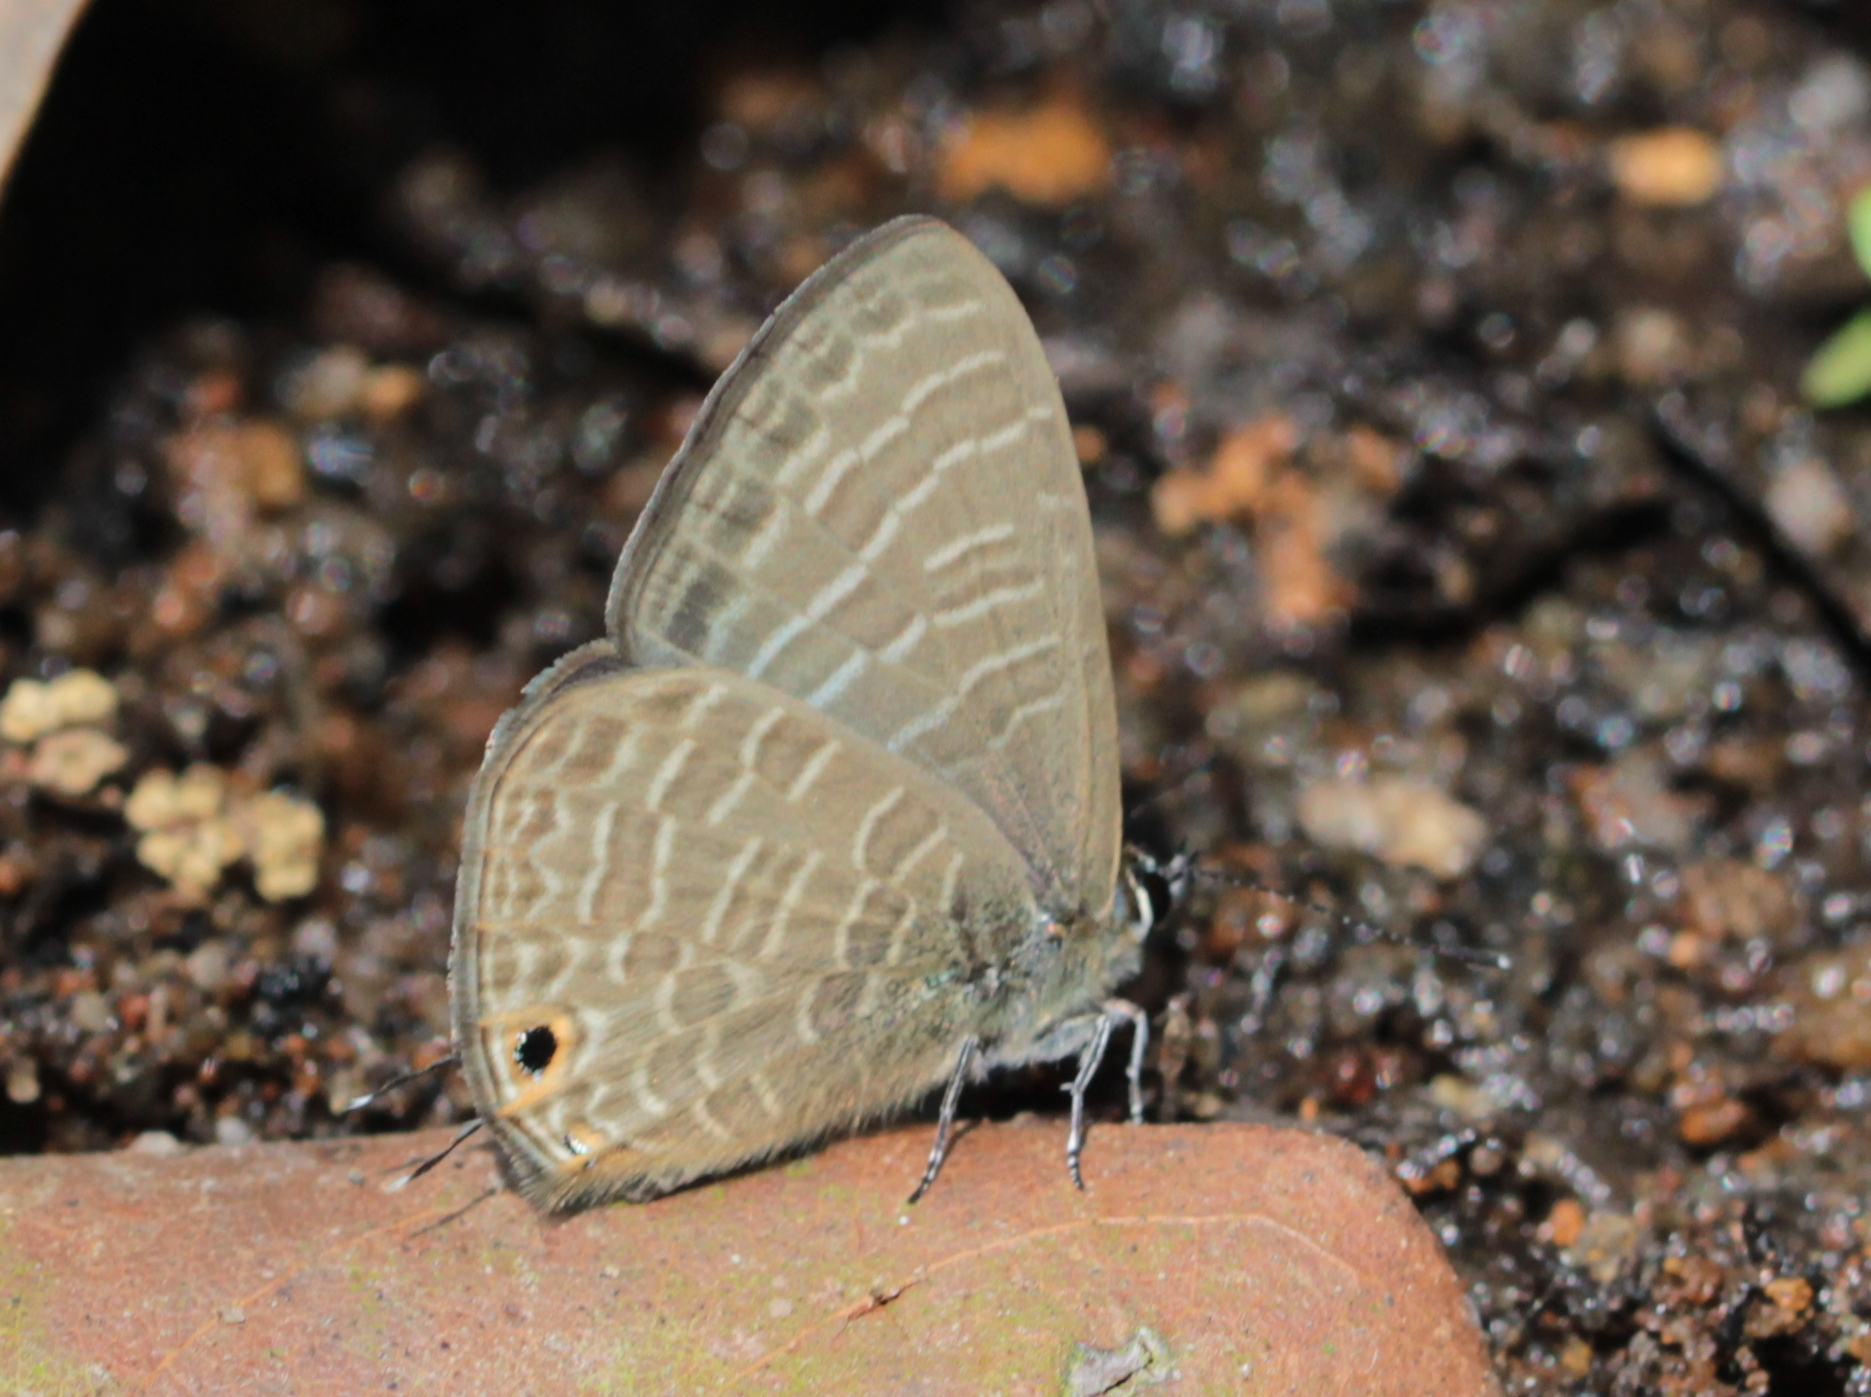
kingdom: Animalia
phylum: Arthropoda
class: Insecta
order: Lepidoptera
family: Lycaenidae
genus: Nacaduba
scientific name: Nacaduba kurava
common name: Transparent 6-line blue
